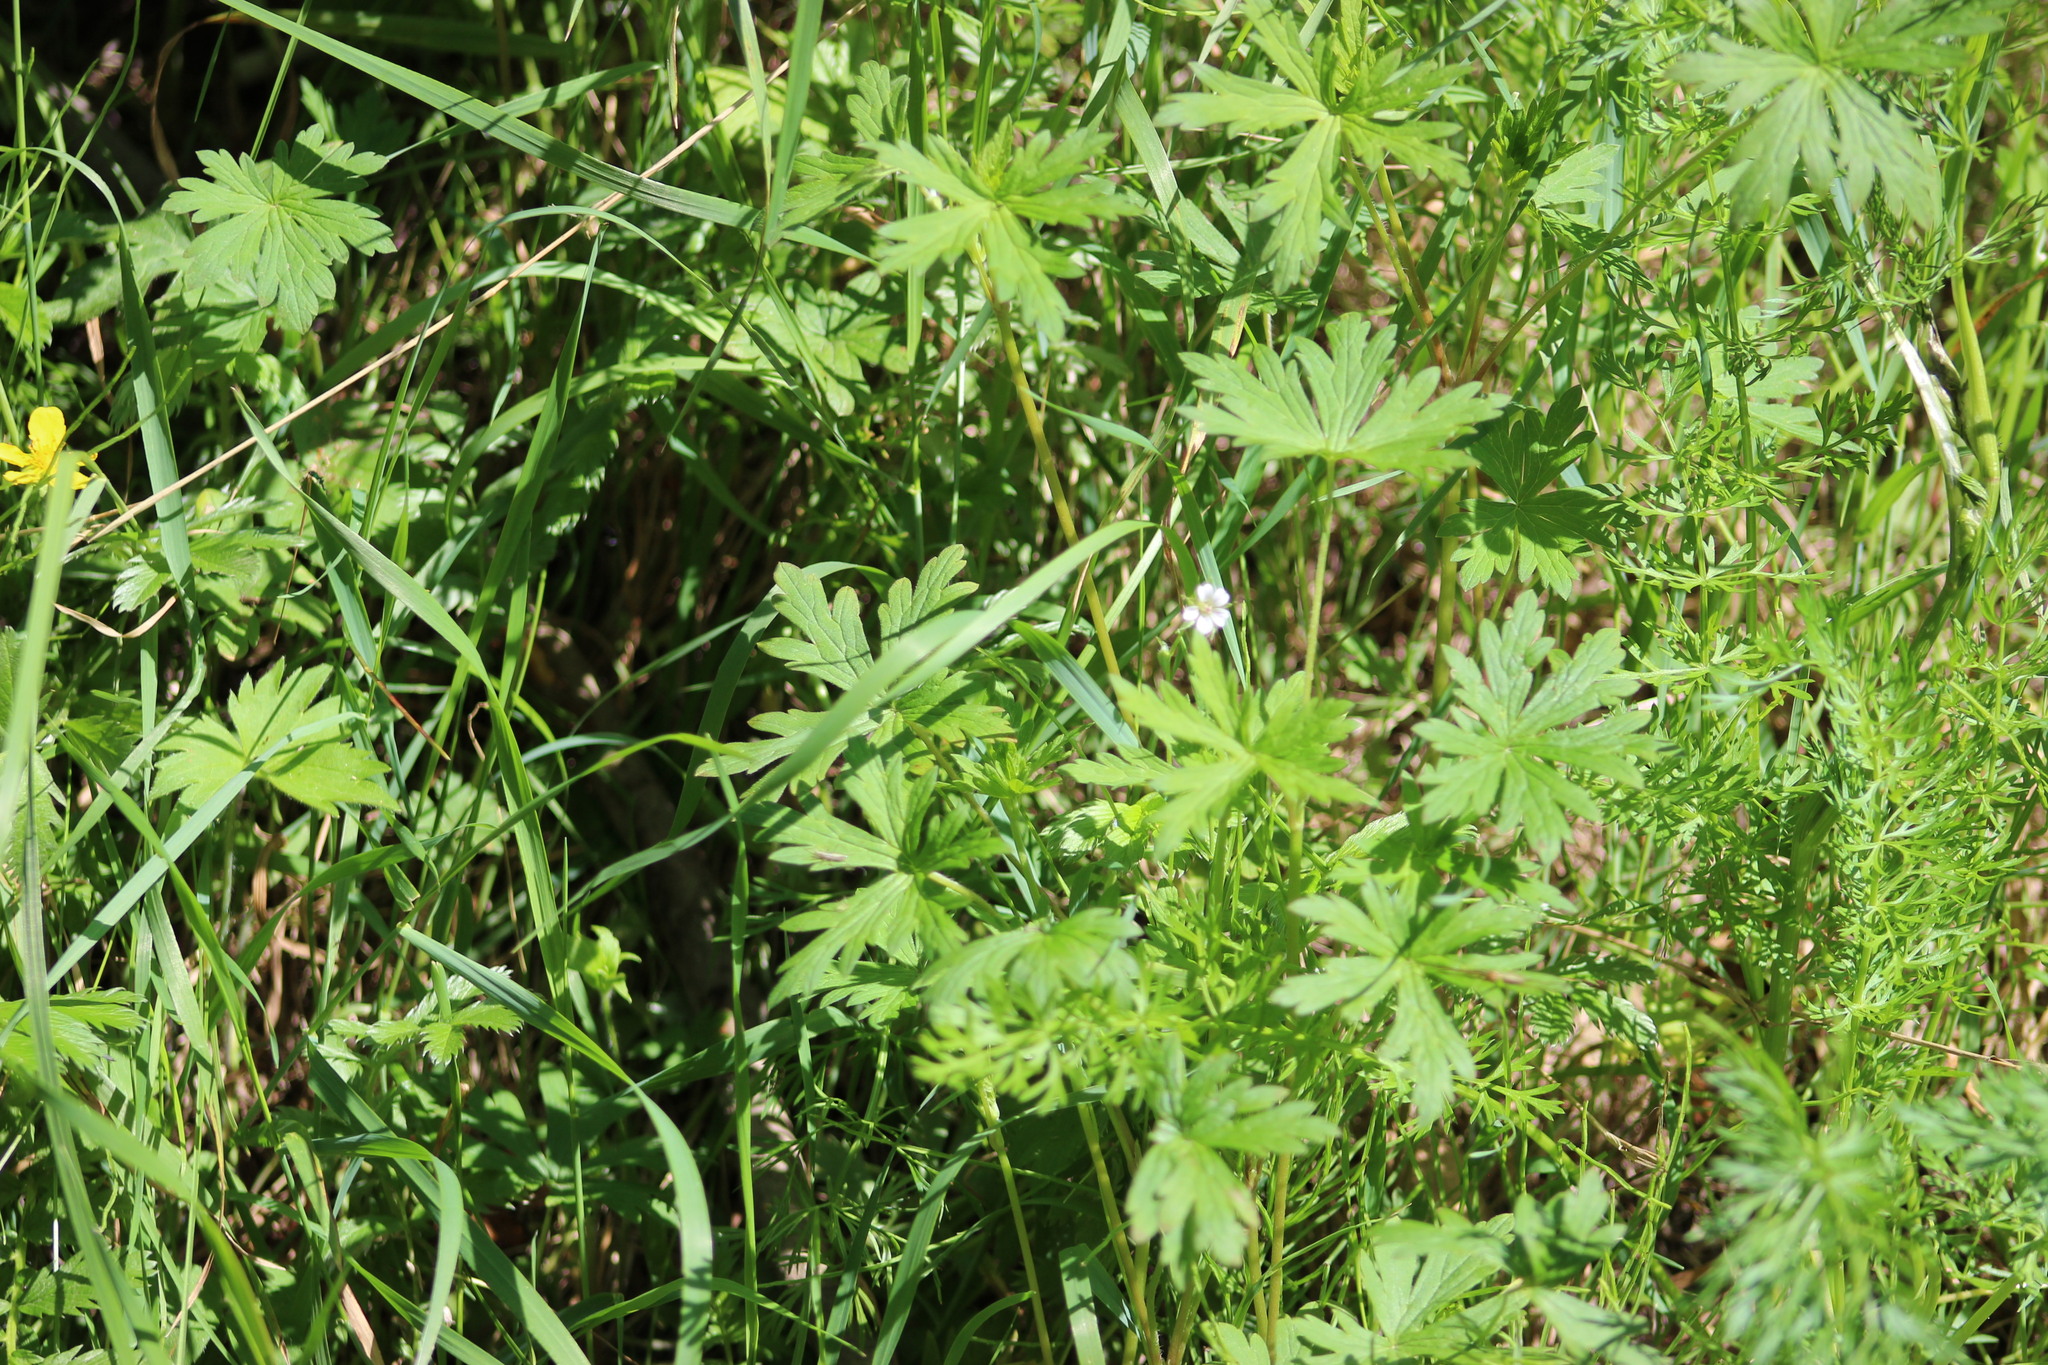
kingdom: Plantae
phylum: Tracheophyta
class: Magnoliopsida
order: Geraniales
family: Geraniaceae
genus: Geranium
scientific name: Geranium sibiricum
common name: Siberian crane's-bill
